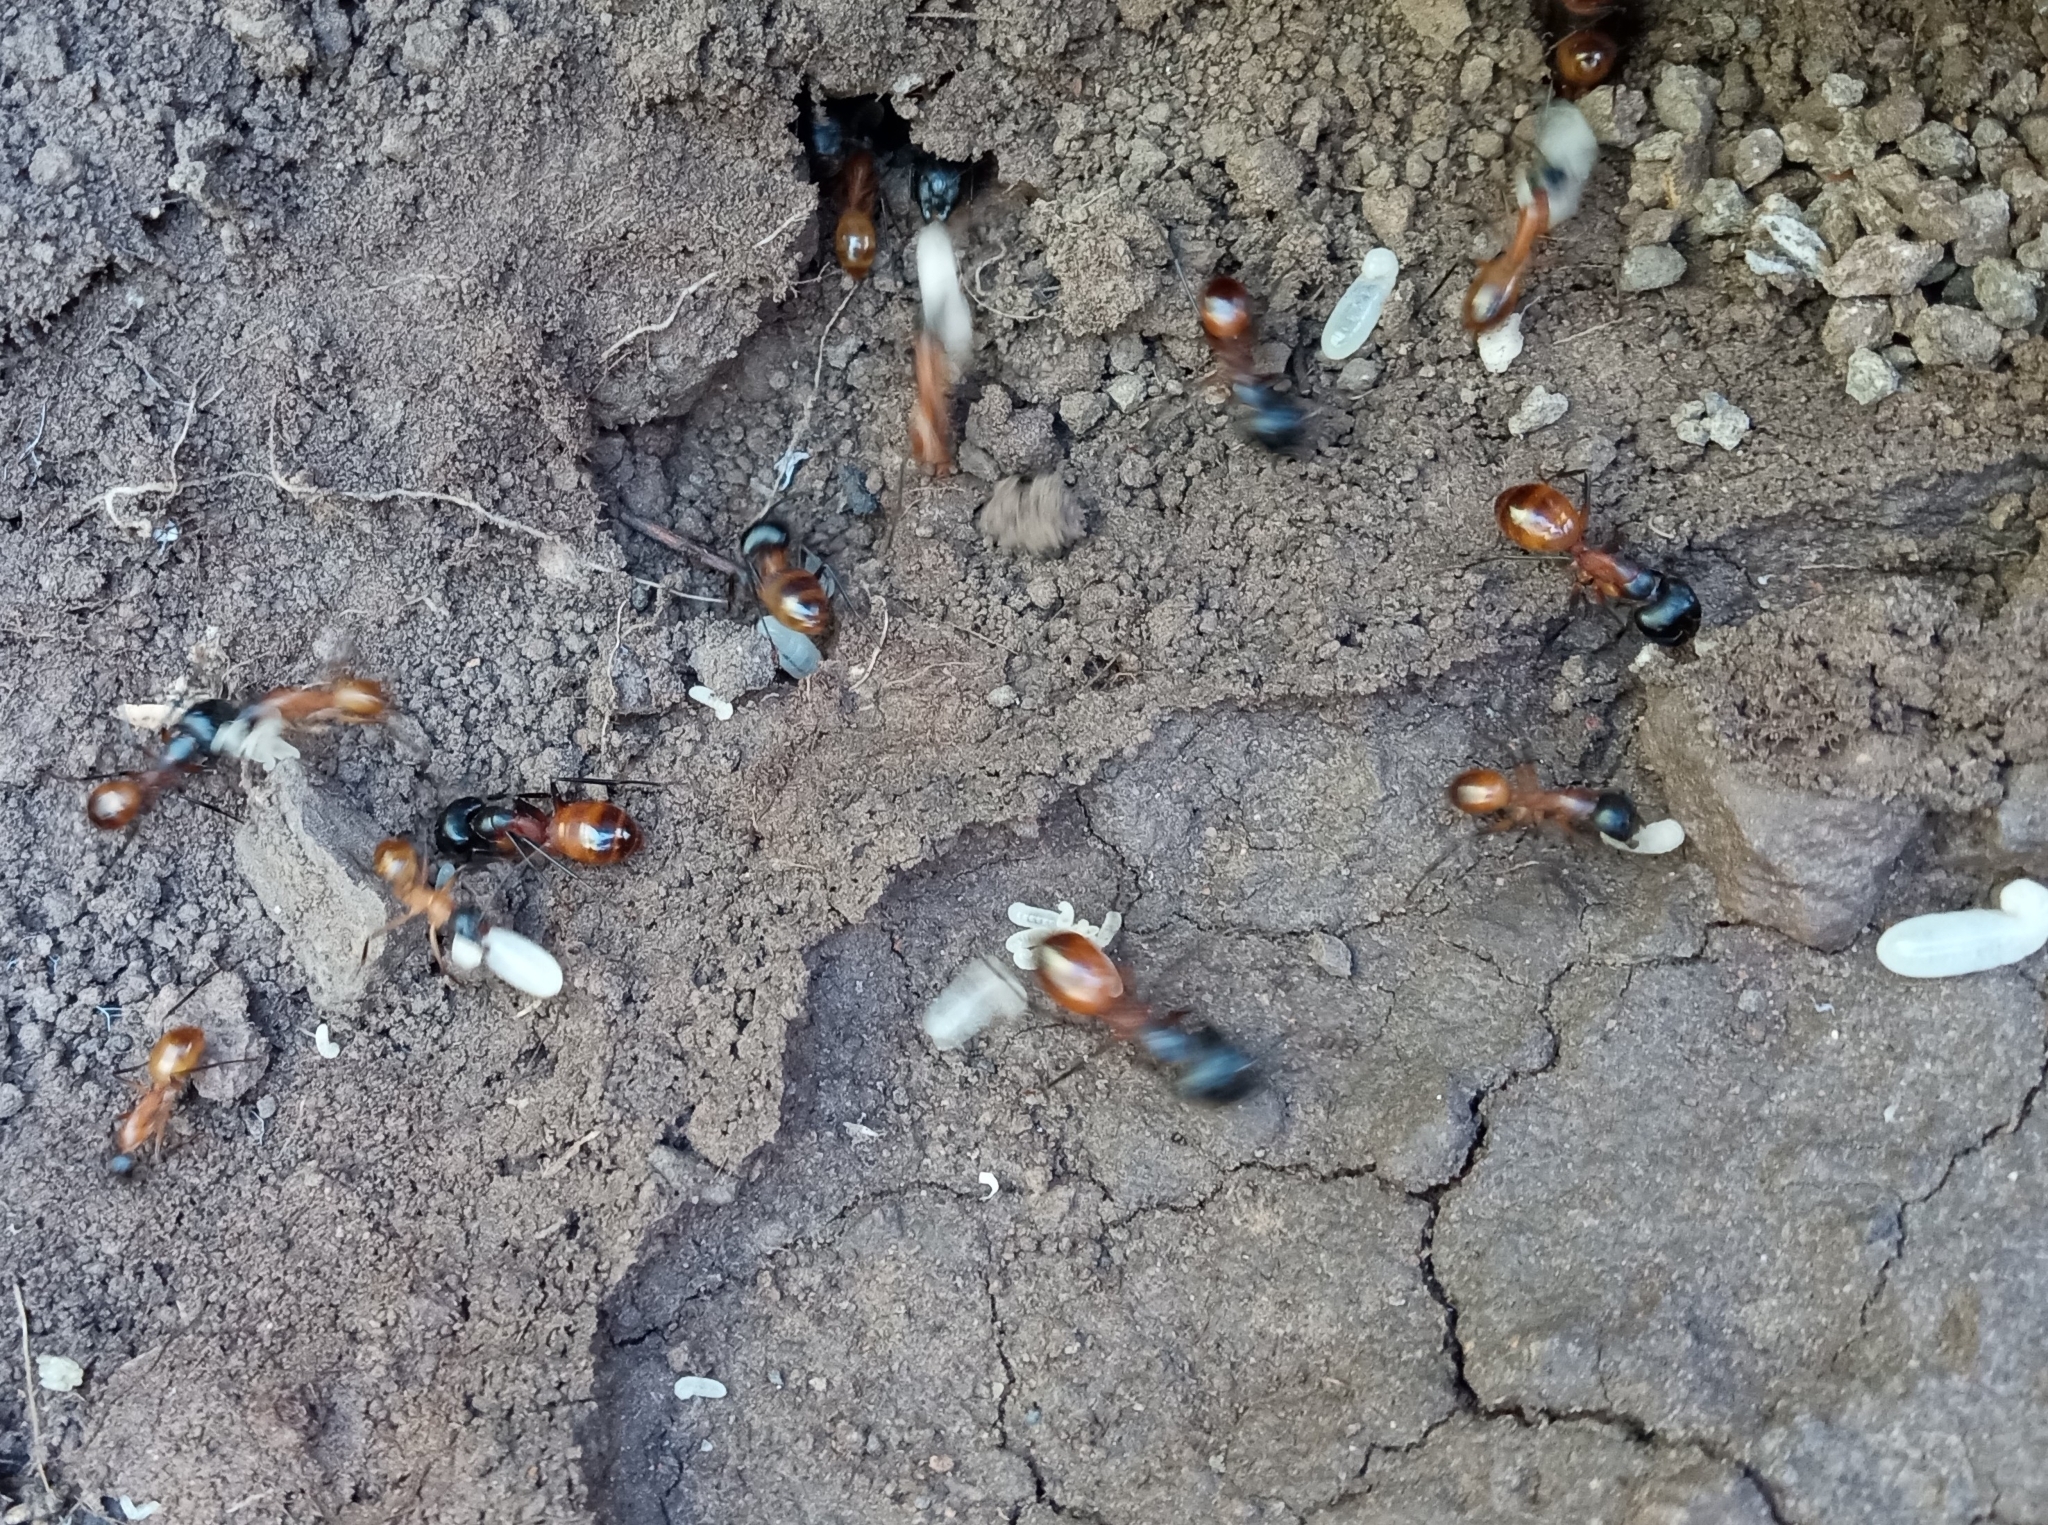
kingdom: Animalia
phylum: Arthropoda
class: Insecta
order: Hymenoptera
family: Formicidae
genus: Camponotus
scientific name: Camponotus ocreatus
